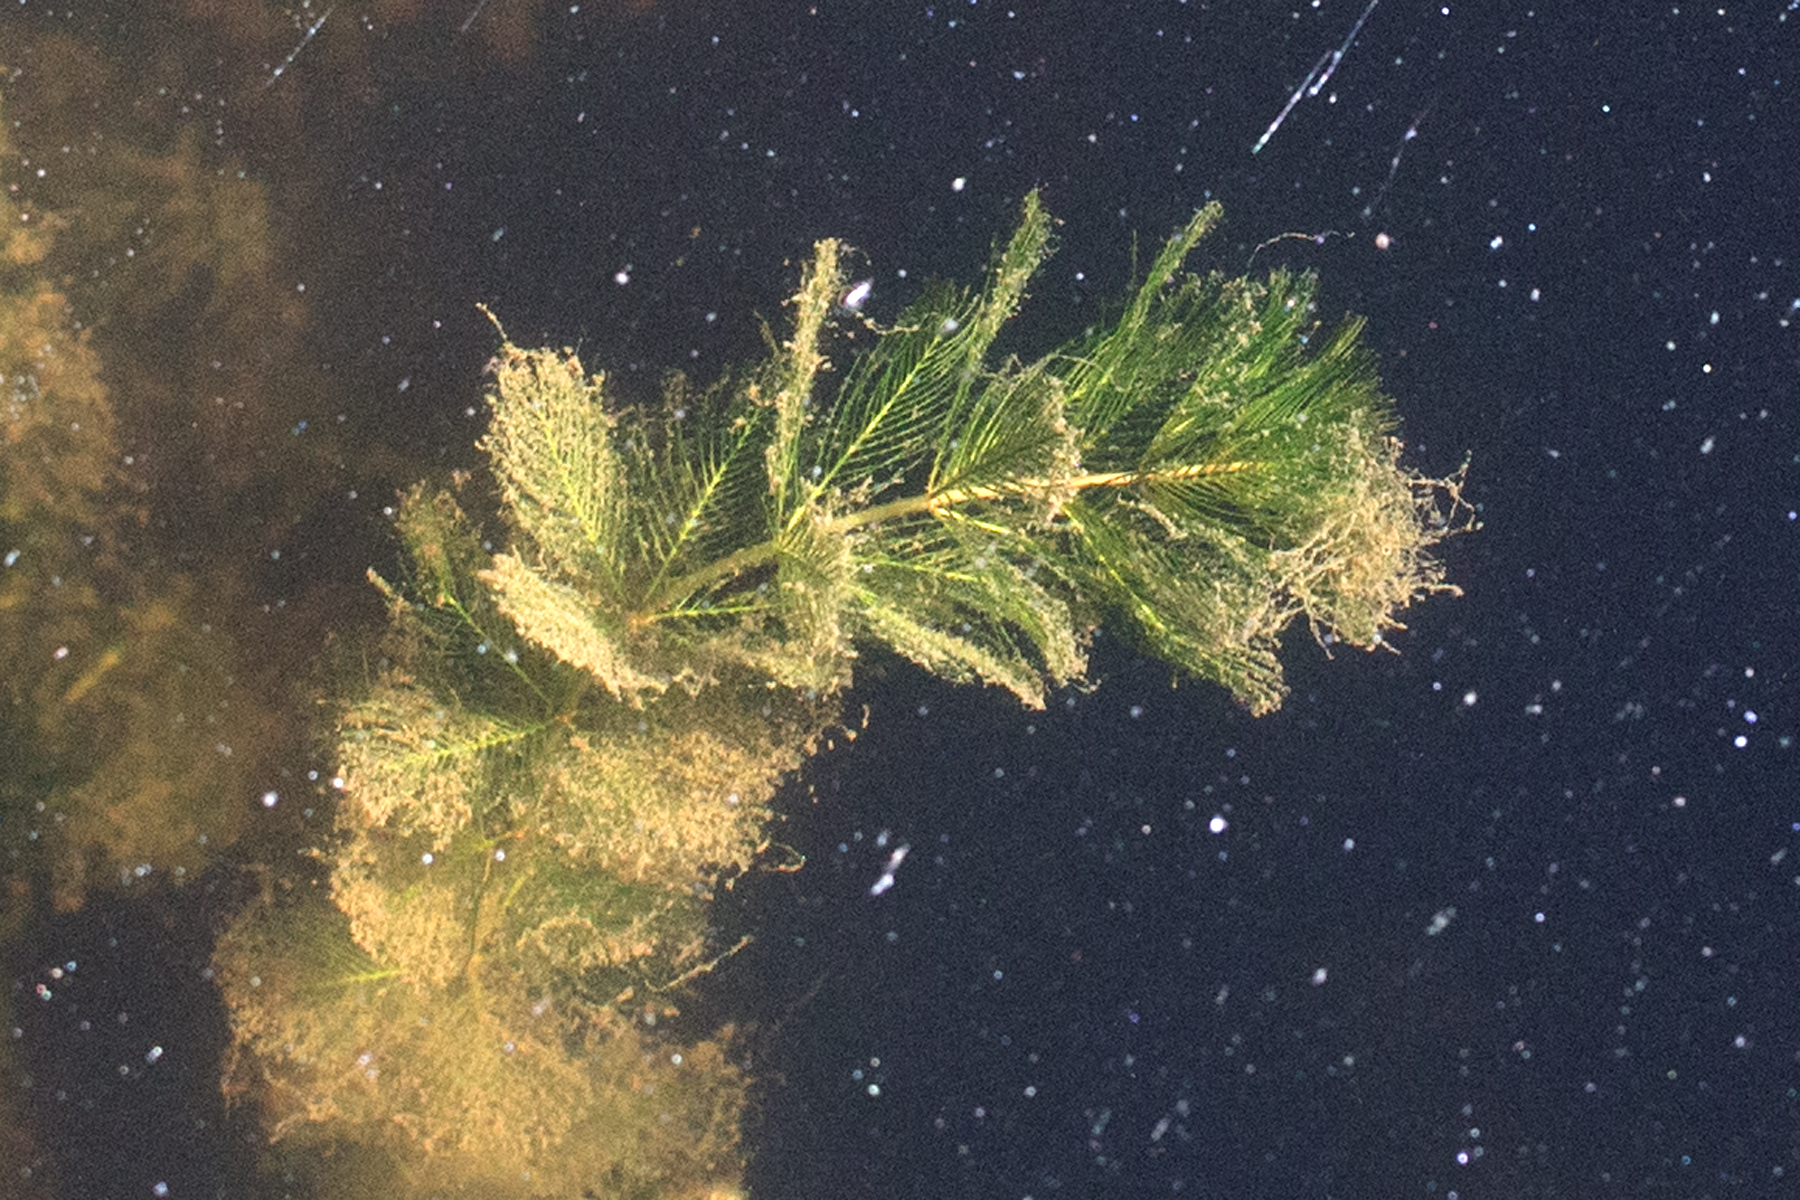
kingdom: Plantae
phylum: Tracheophyta
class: Magnoliopsida
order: Saxifragales
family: Haloragaceae
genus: Myriophyllum
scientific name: Myriophyllum spicatum
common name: Spiked water-milfoil
